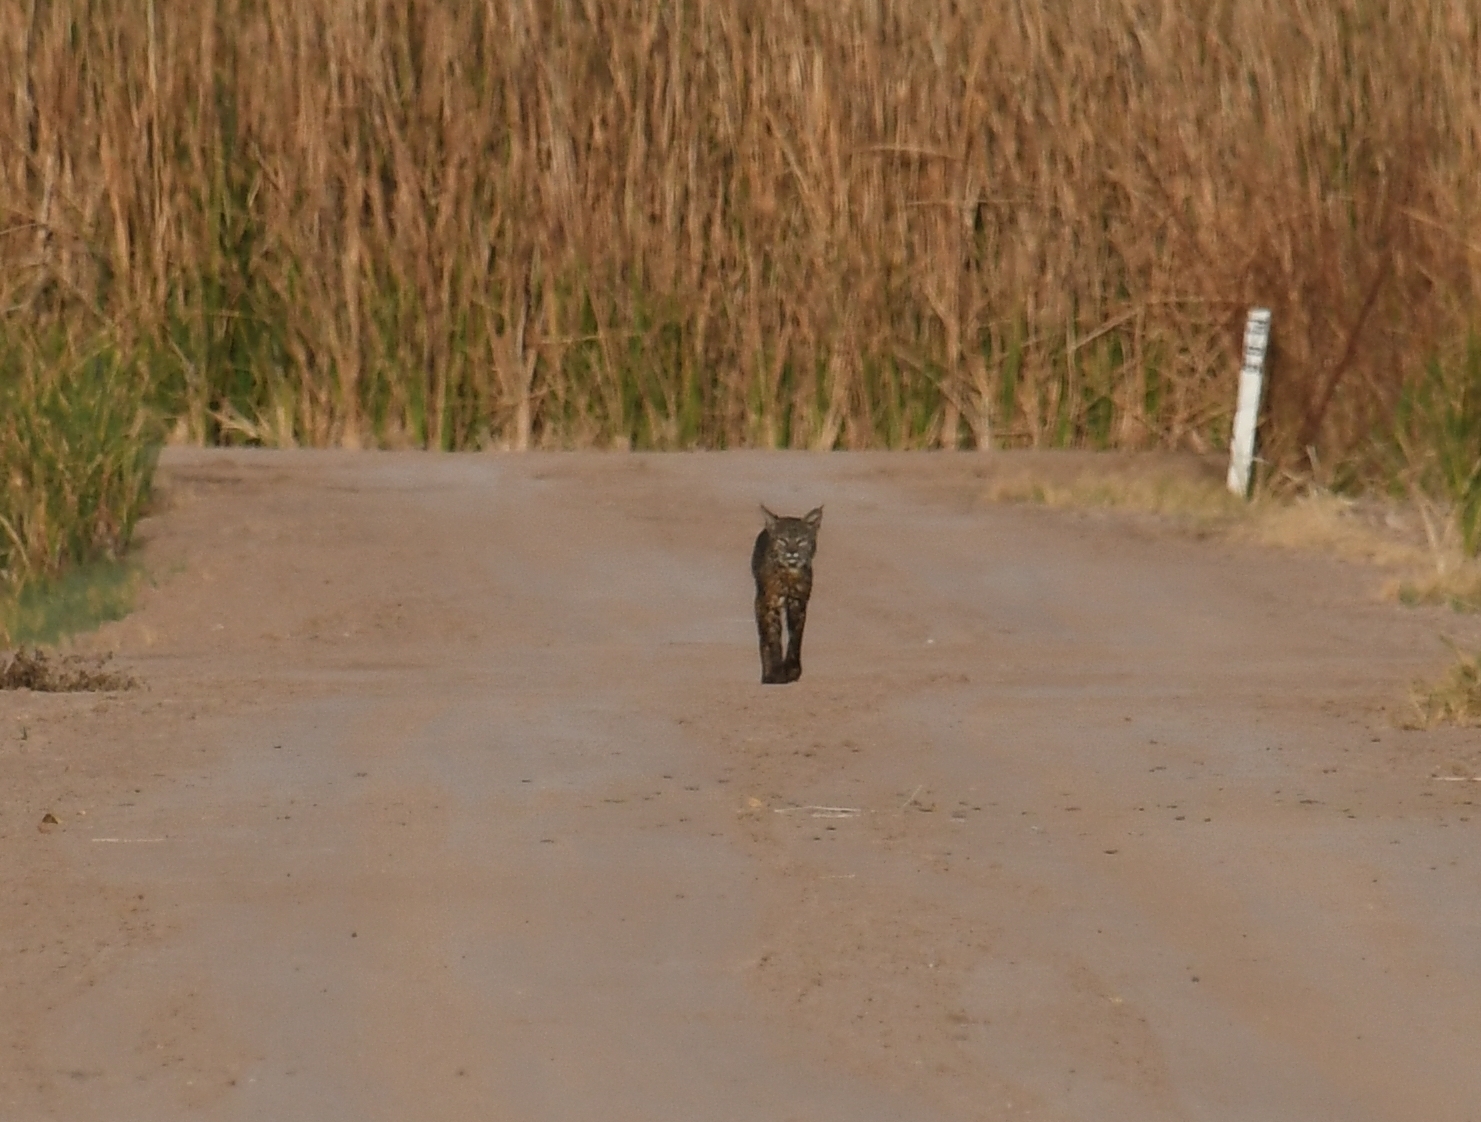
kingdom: Animalia
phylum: Chordata
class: Mammalia
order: Carnivora
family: Felidae
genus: Lynx
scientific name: Lynx rufus
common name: Bobcat
